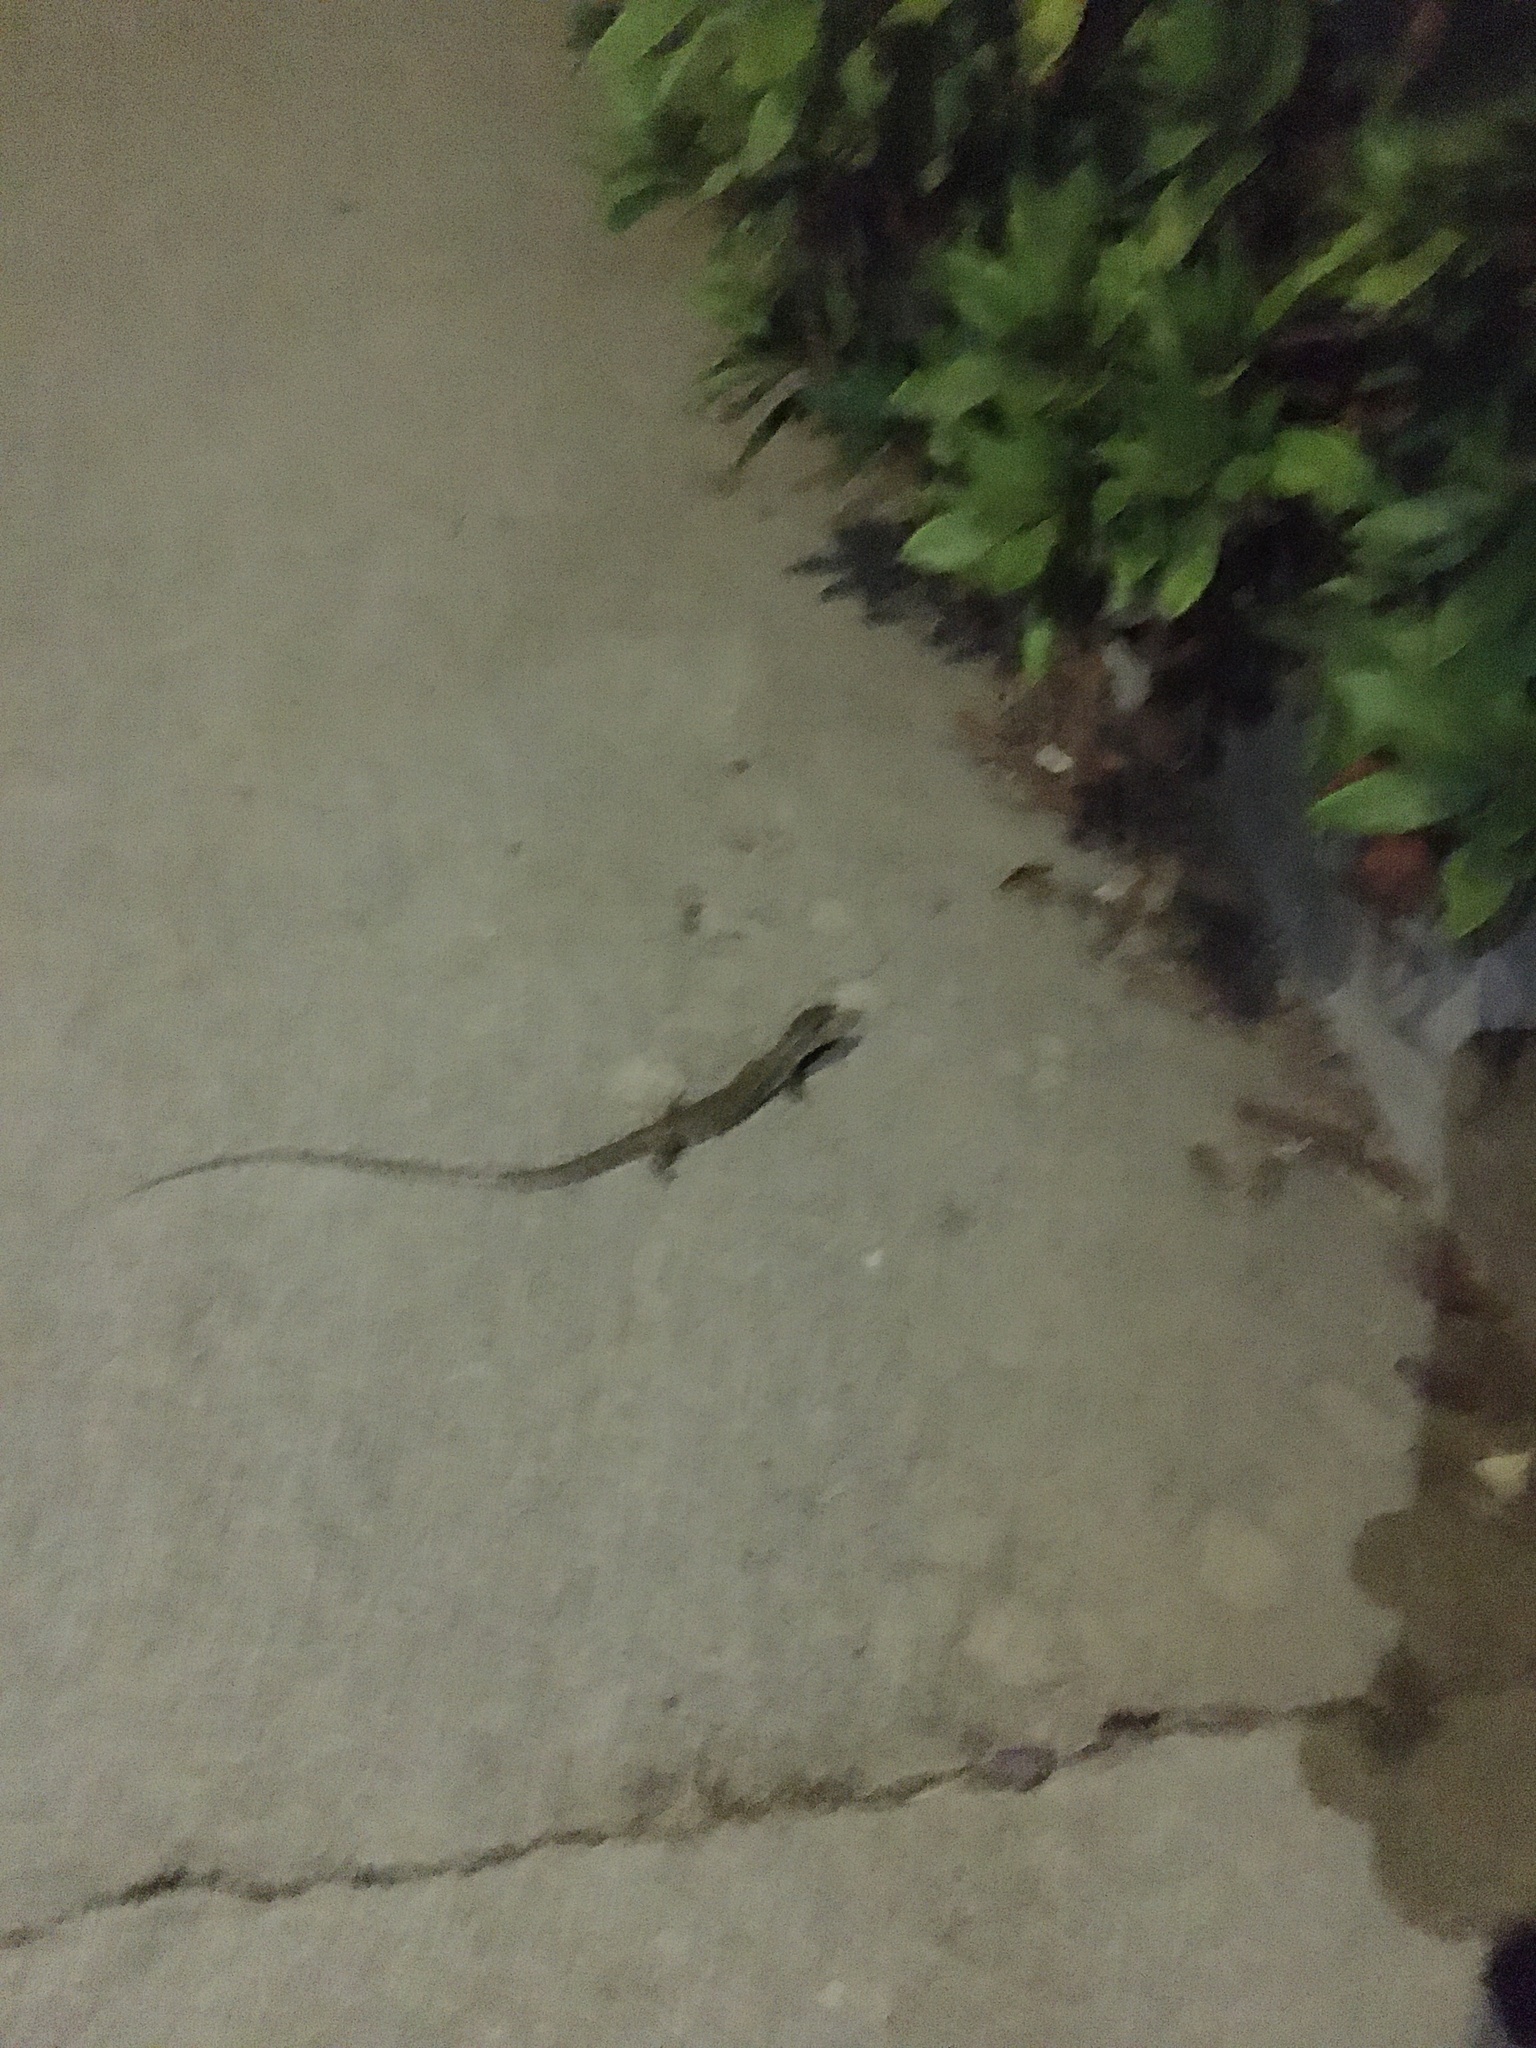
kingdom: Animalia
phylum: Chordata
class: Squamata
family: Anguidae
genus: Elgaria
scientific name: Elgaria multicarinata
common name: Southern alligator lizard
